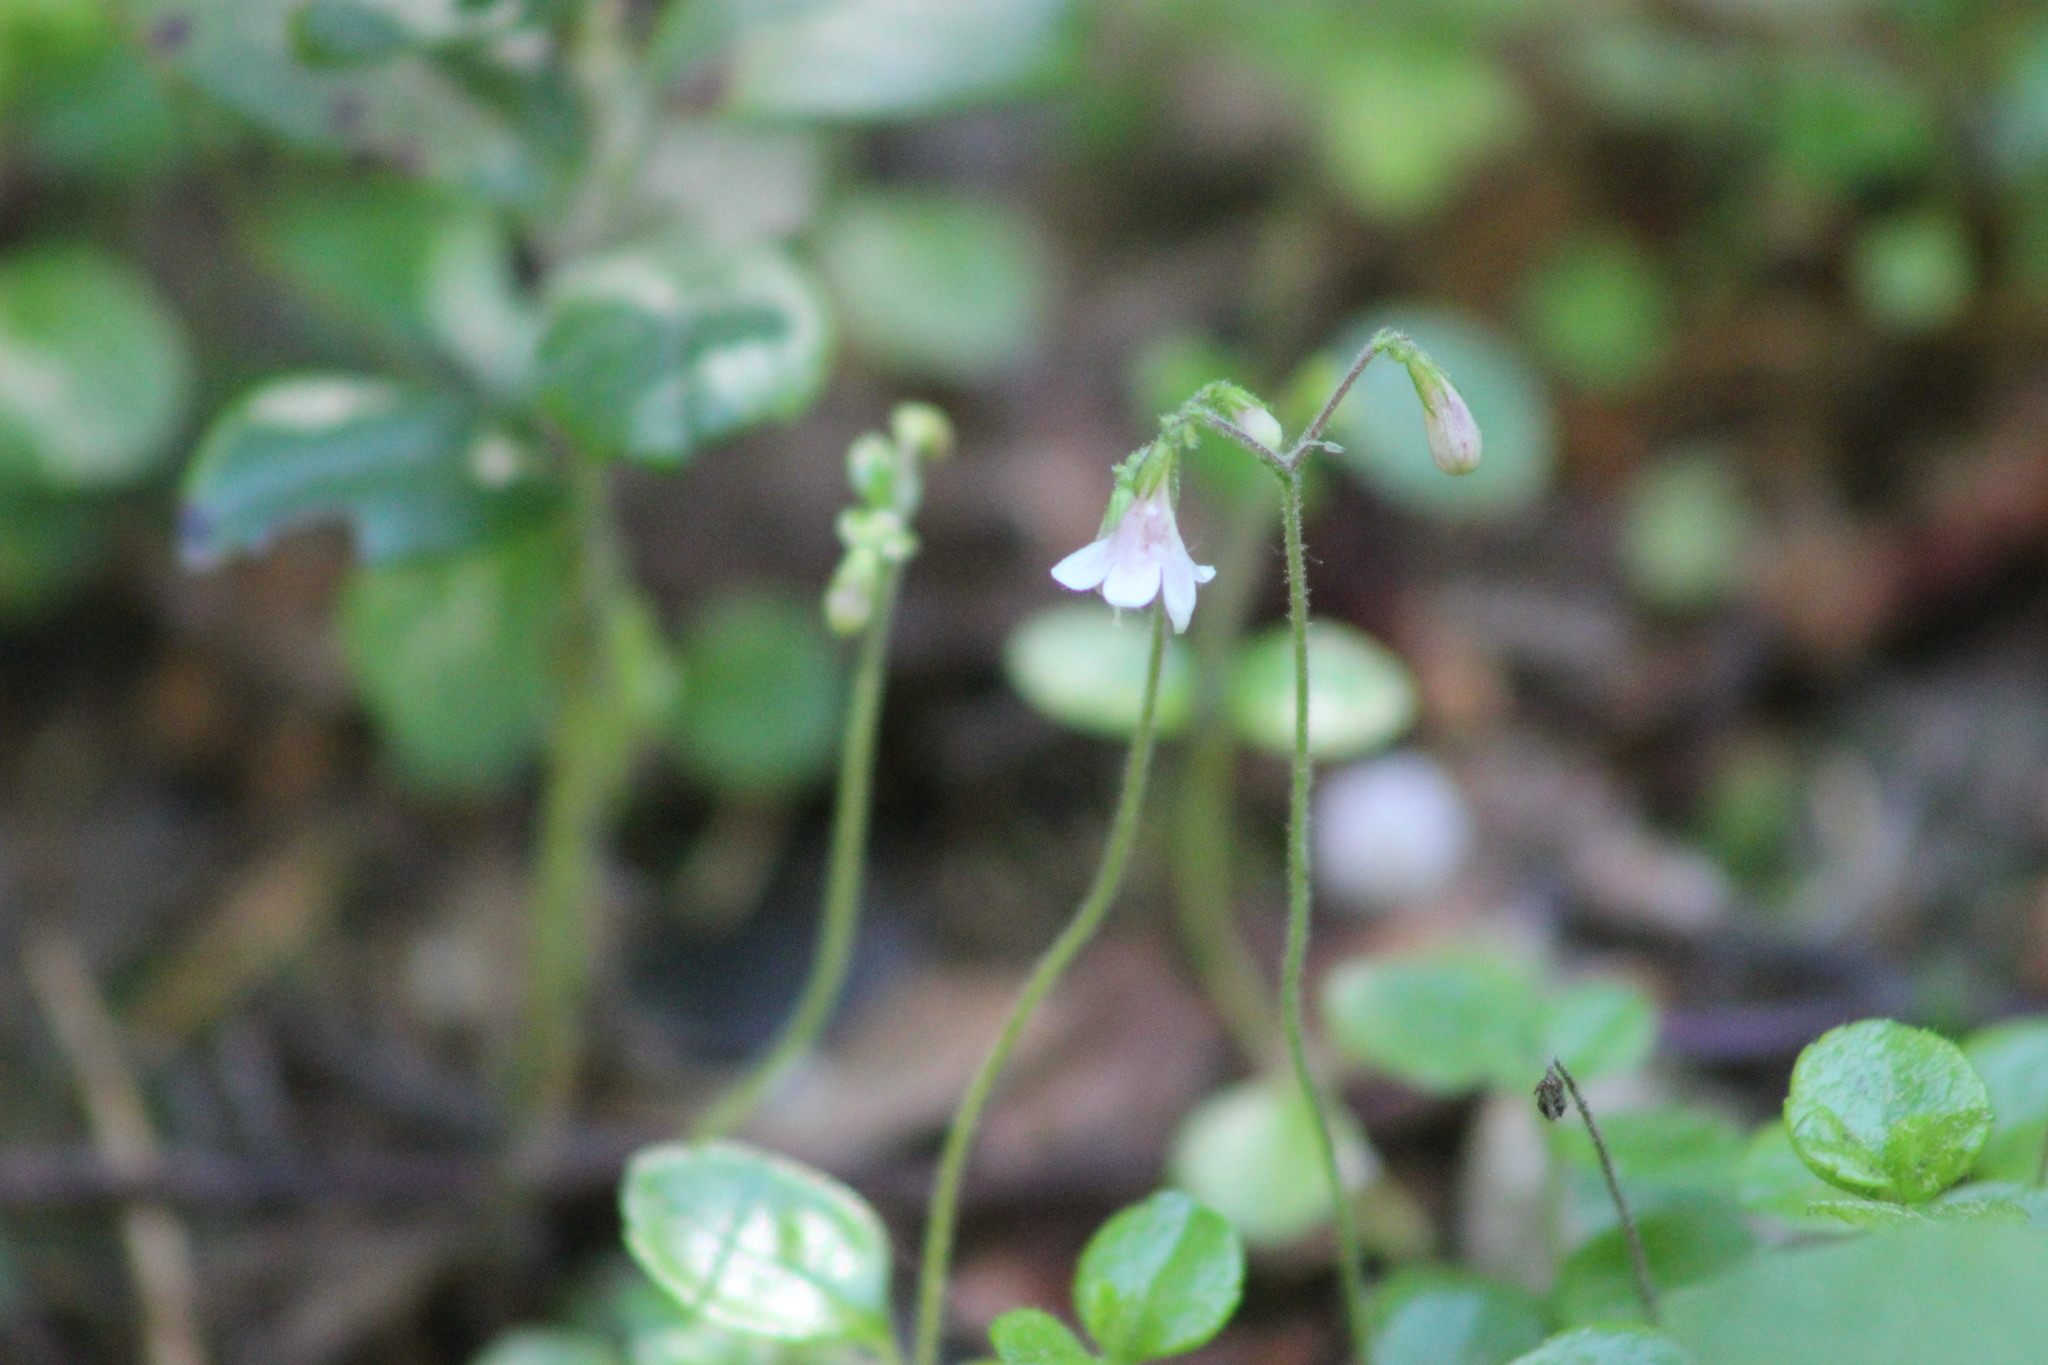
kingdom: Plantae
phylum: Tracheophyta
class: Magnoliopsida
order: Dipsacales
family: Caprifoliaceae
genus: Linnaea
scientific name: Linnaea borealis
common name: Twinflower
